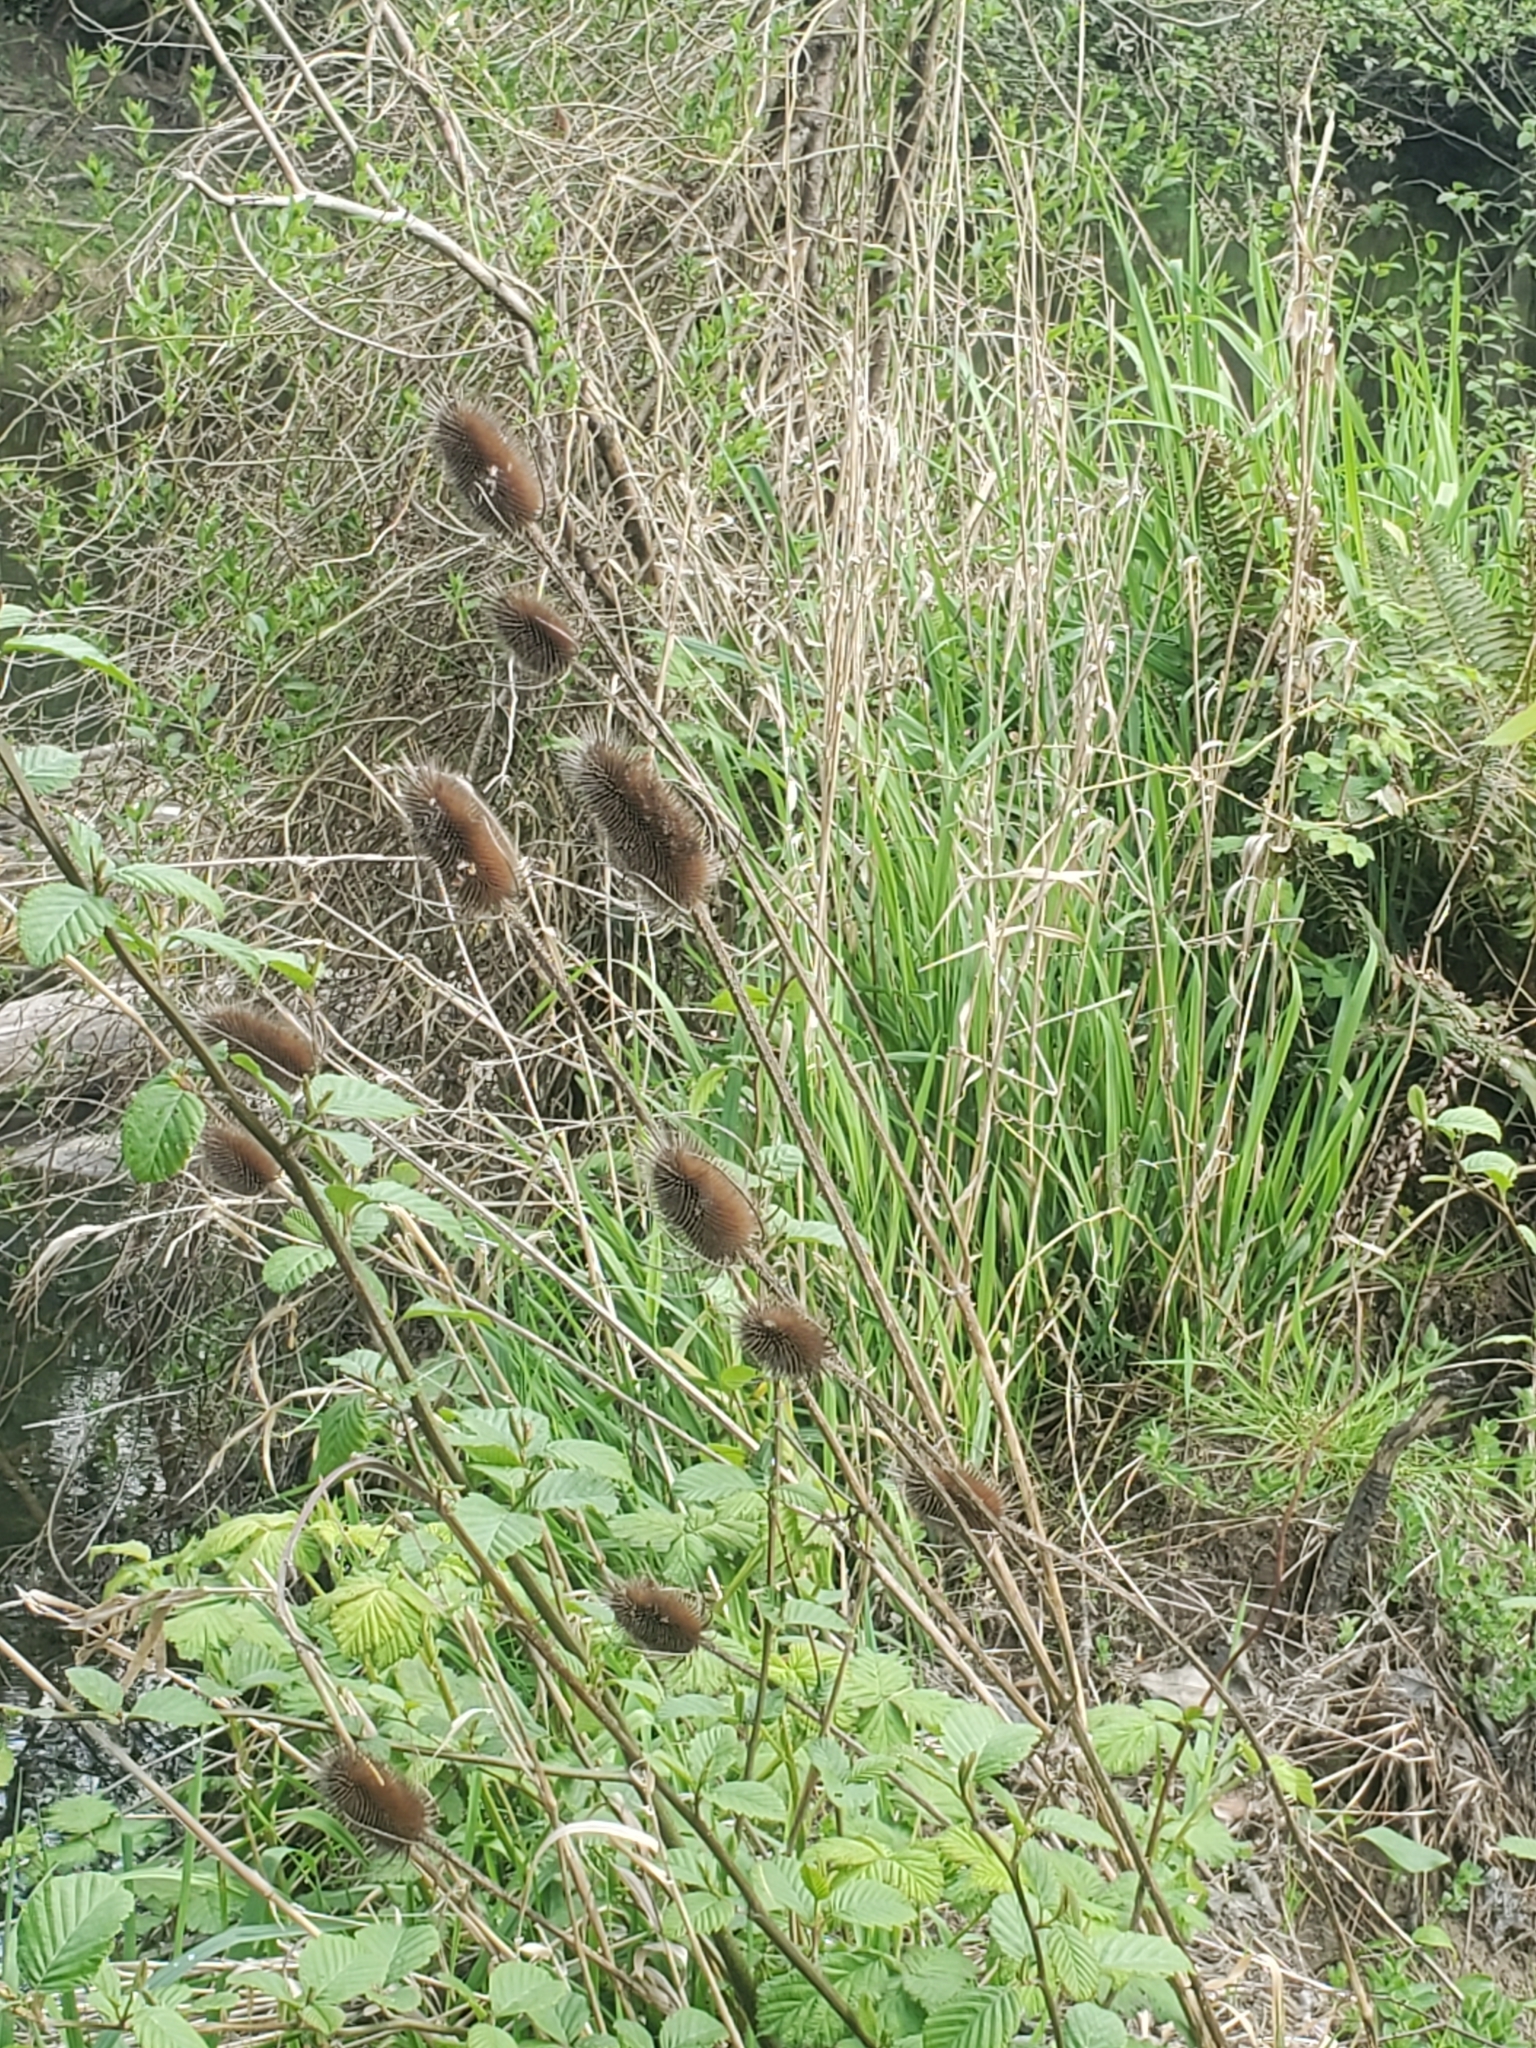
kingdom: Plantae
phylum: Tracheophyta
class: Magnoliopsida
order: Dipsacales
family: Caprifoliaceae
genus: Dipsacus
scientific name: Dipsacus fullonum
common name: Teasel
